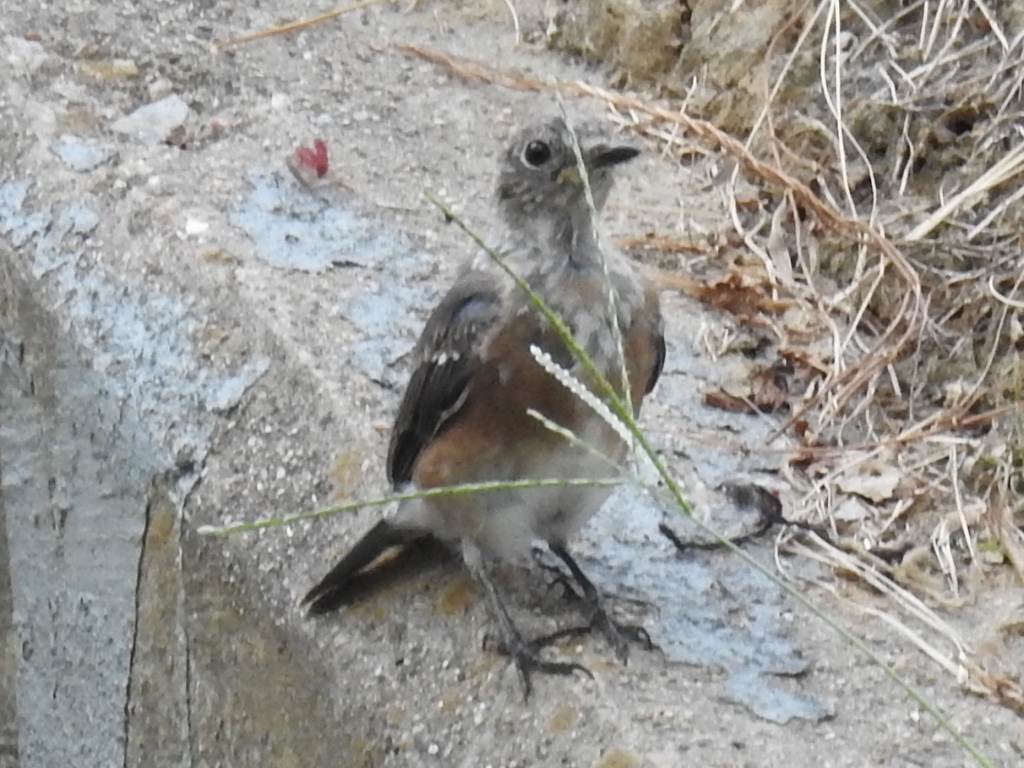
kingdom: Animalia
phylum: Chordata
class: Aves
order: Passeriformes
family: Turdidae
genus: Sialia
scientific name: Sialia sialis
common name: Eastern bluebird
